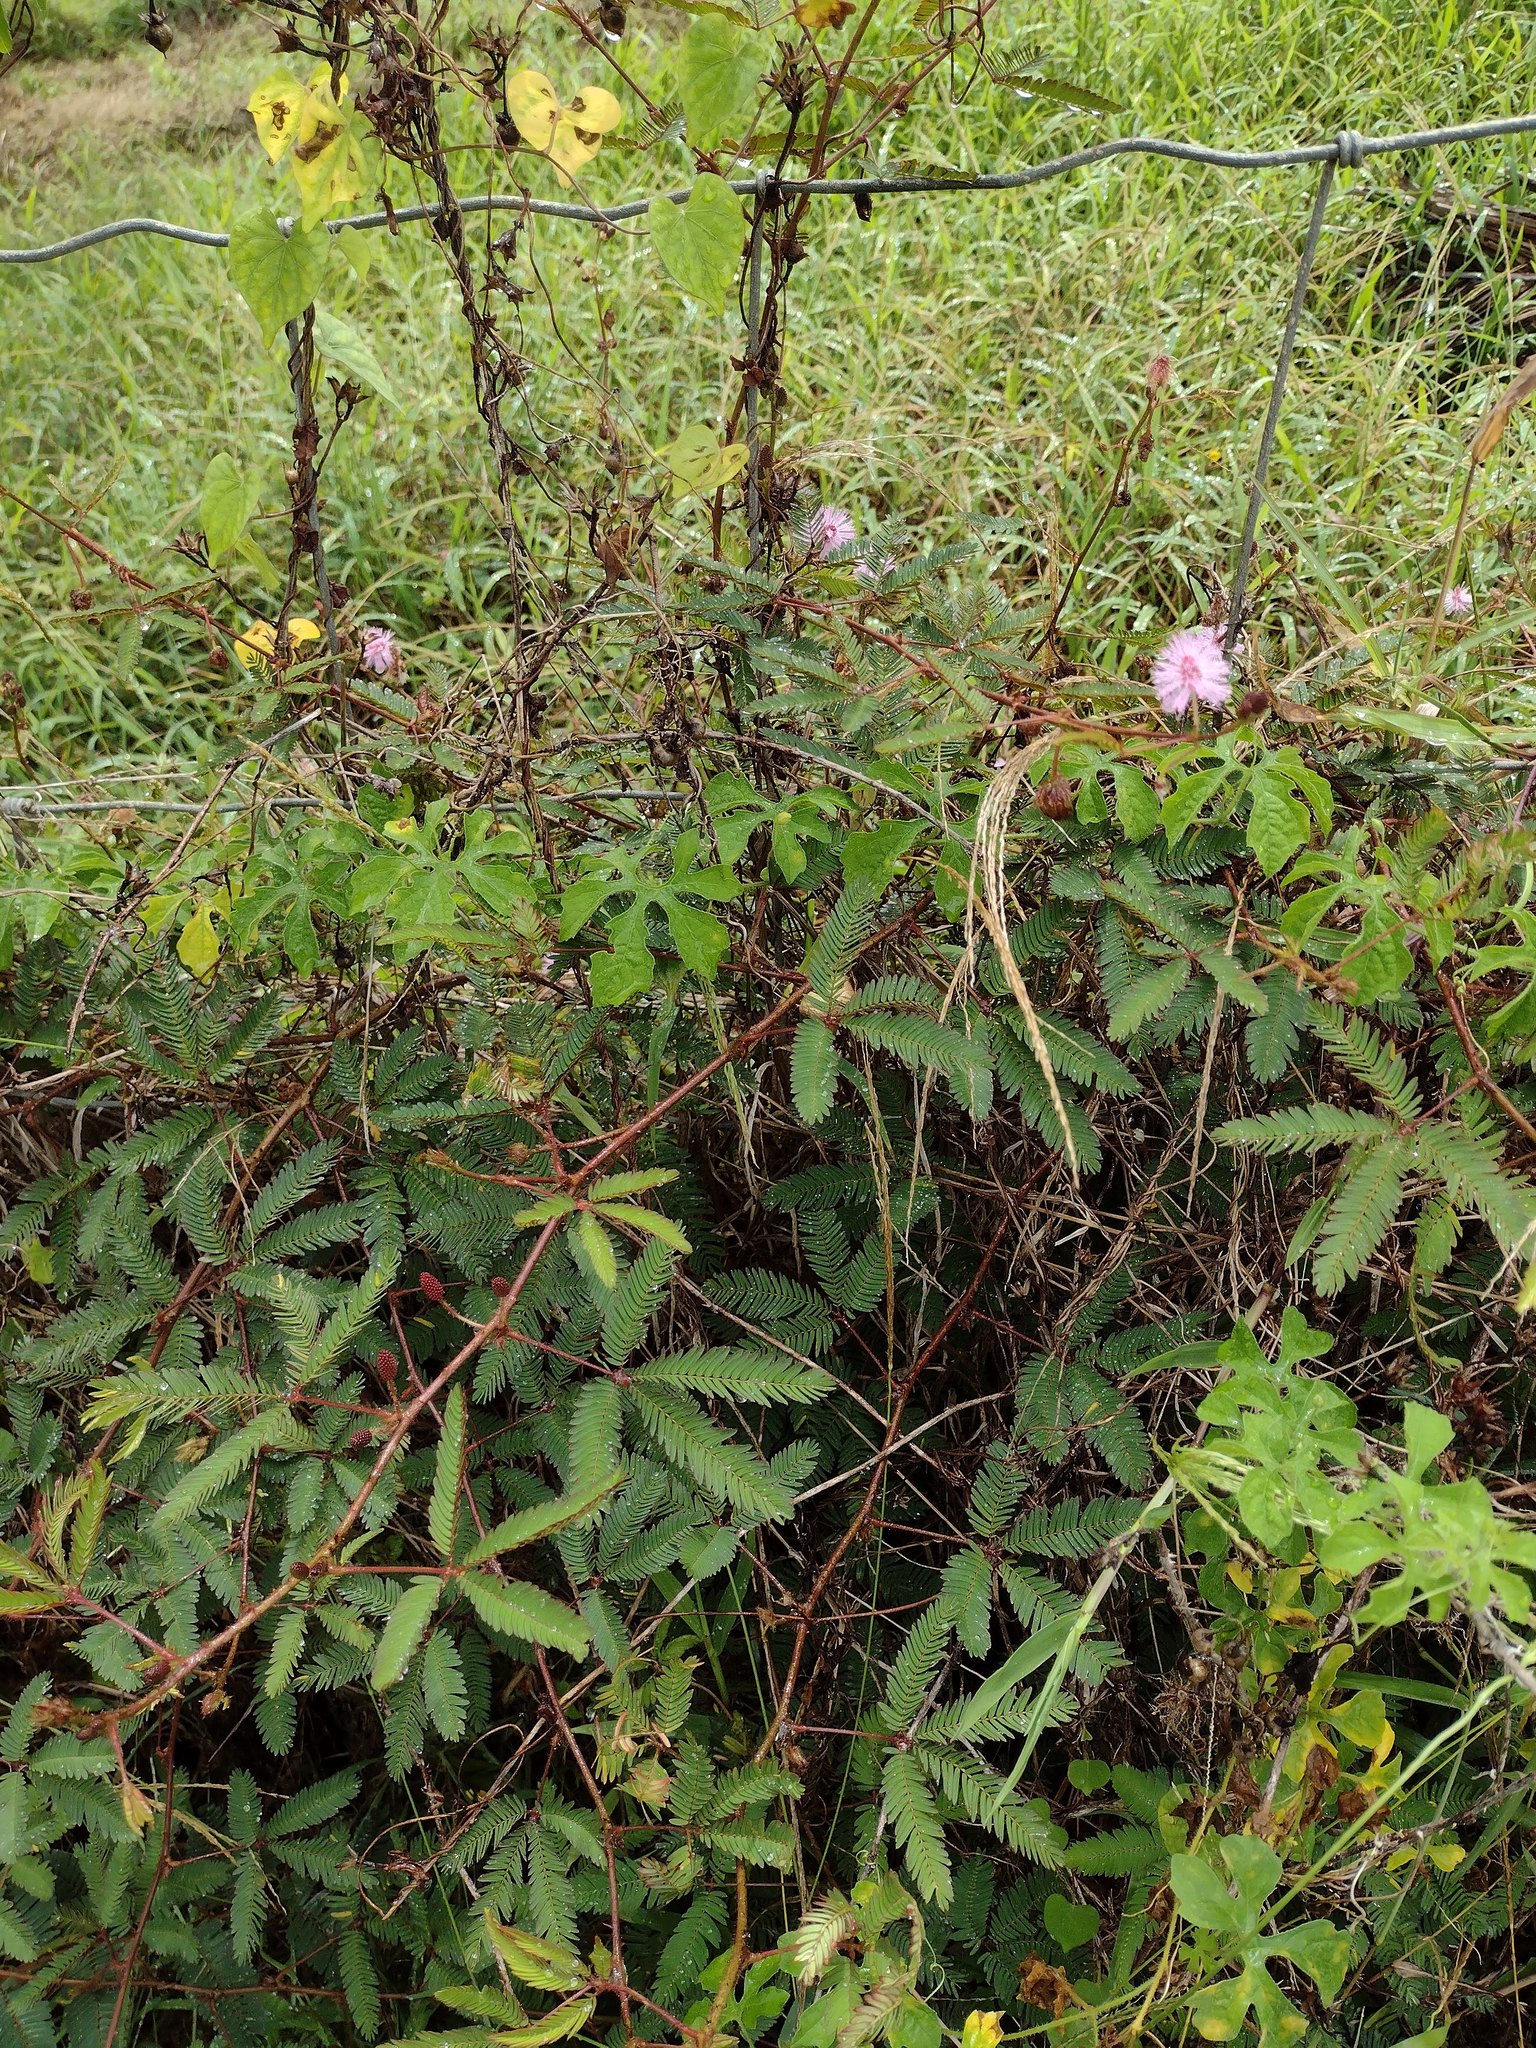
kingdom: Plantae
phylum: Tracheophyta
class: Magnoliopsida
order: Fabales
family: Fabaceae
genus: Mimosa
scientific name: Mimosa pudica
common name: Sensitive plant
